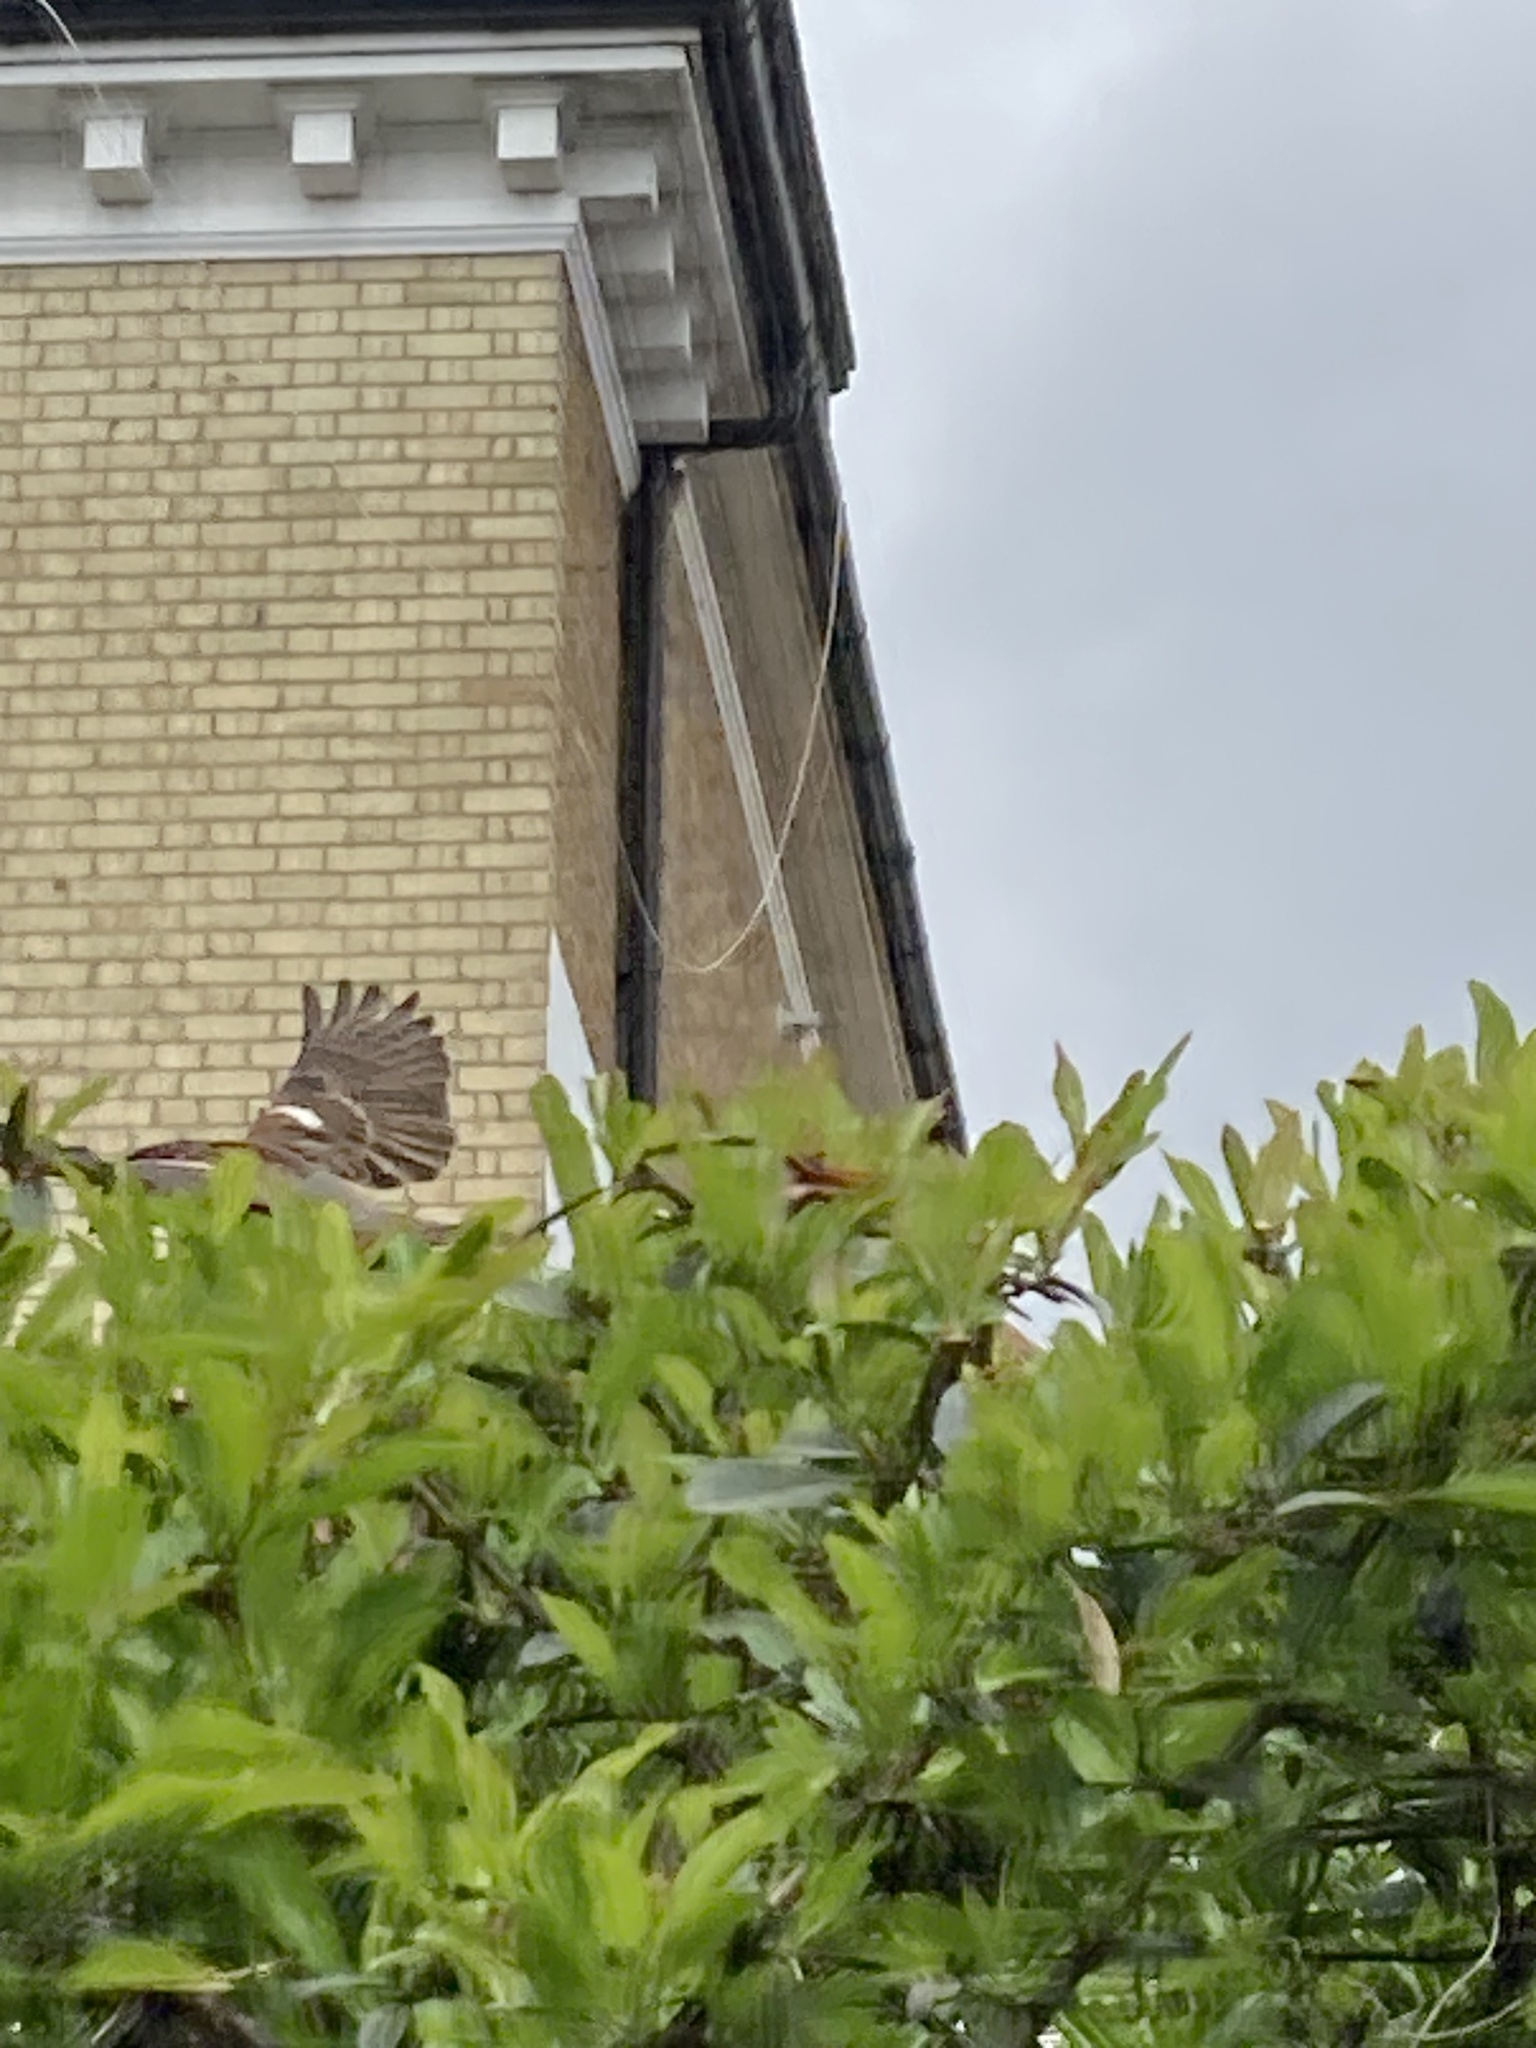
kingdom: Animalia
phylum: Chordata
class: Aves
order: Passeriformes
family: Passeridae
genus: Passer
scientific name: Passer domesticus
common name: House sparrow
